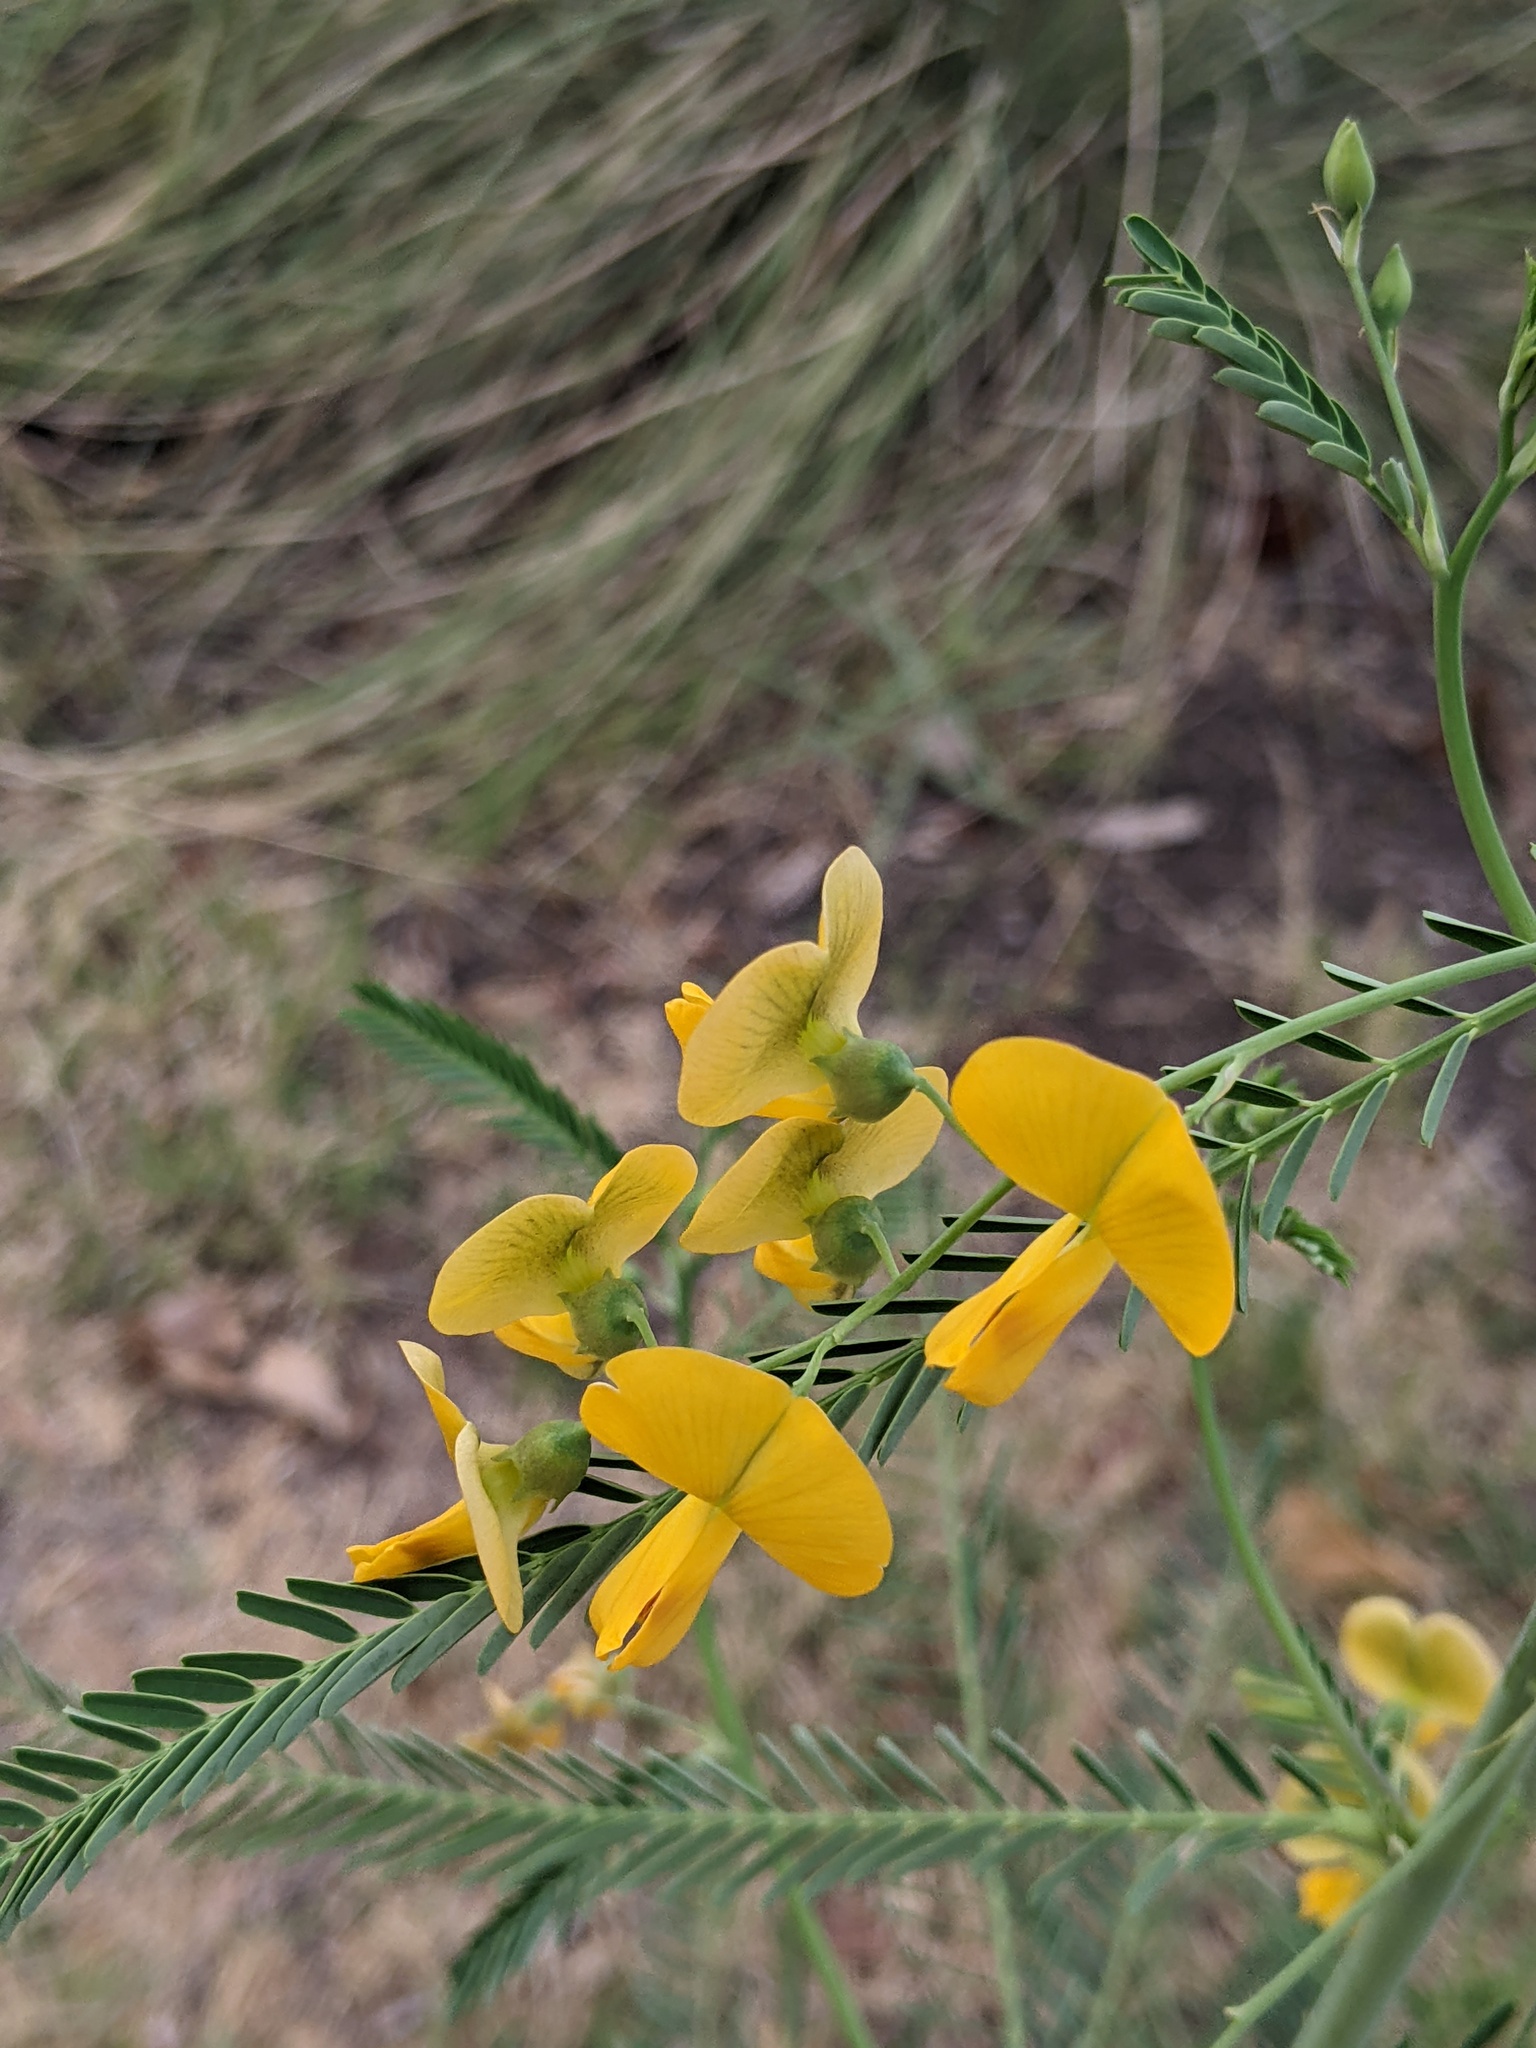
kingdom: Plantae
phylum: Tracheophyta
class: Magnoliopsida
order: Fabales
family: Fabaceae
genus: Sesbania
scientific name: Sesbania herbacea
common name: Bigpod sesbania
